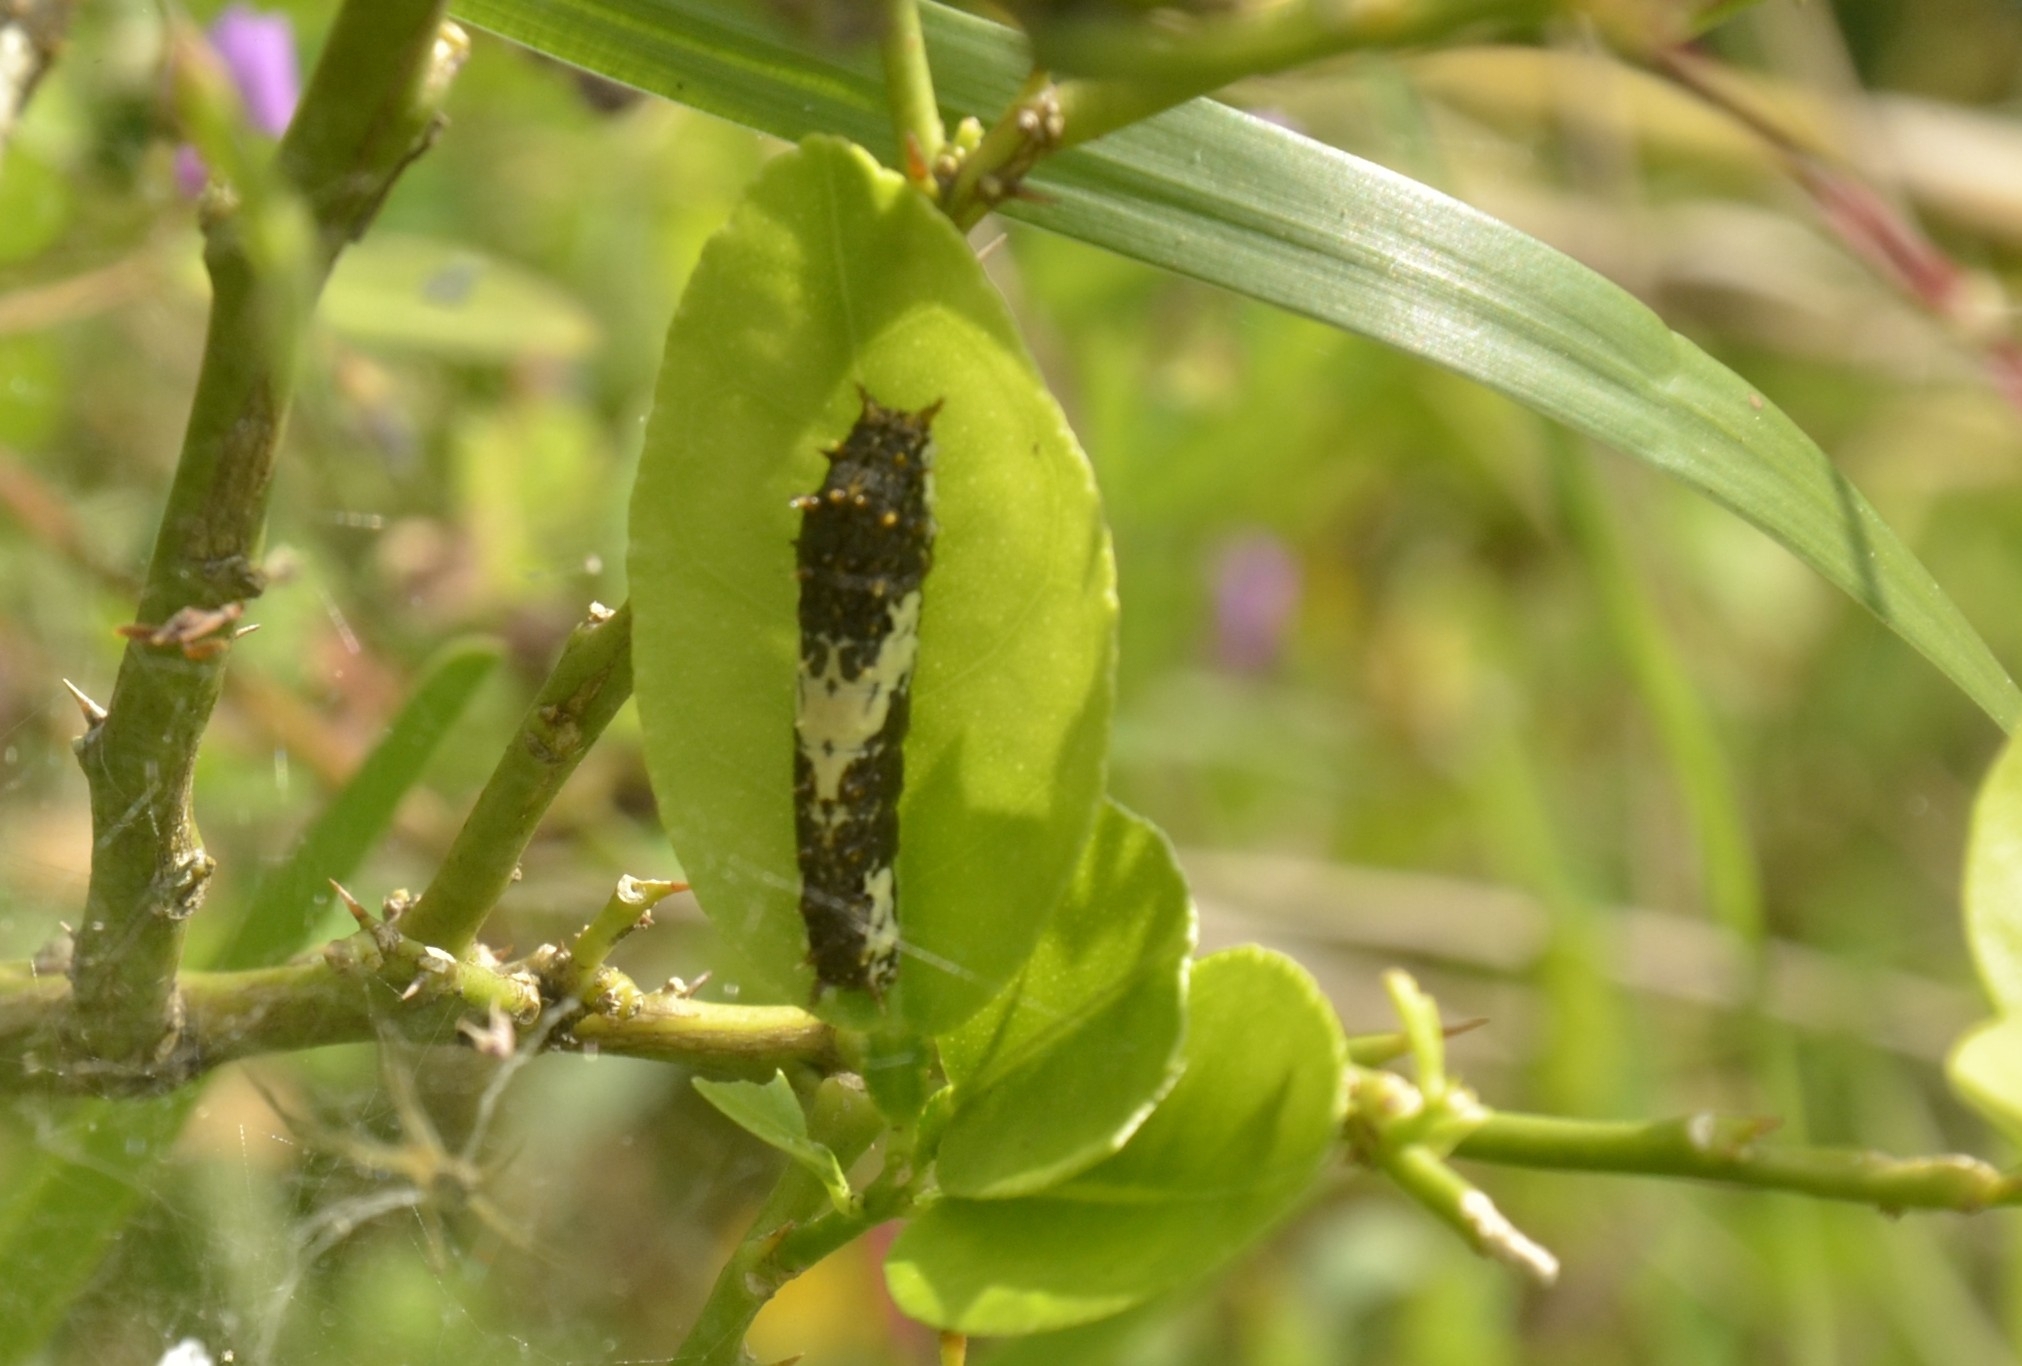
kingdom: Animalia
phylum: Arthropoda
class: Insecta
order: Lepidoptera
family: Papilionidae
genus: Papilio
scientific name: Papilio demoleus
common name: Lime butterfly
